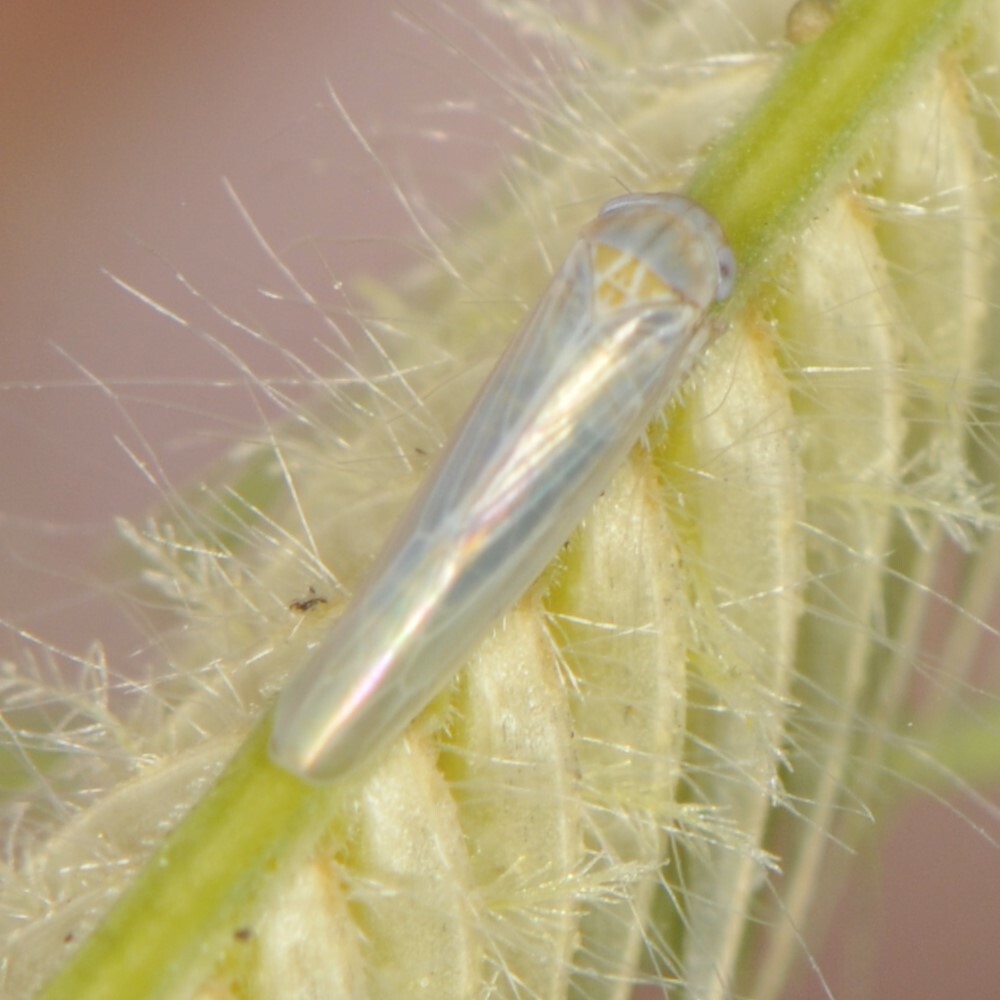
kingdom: Animalia
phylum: Arthropoda
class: Insecta
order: Hemiptera
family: Cicadellidae
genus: Balclutha
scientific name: Balclutha
